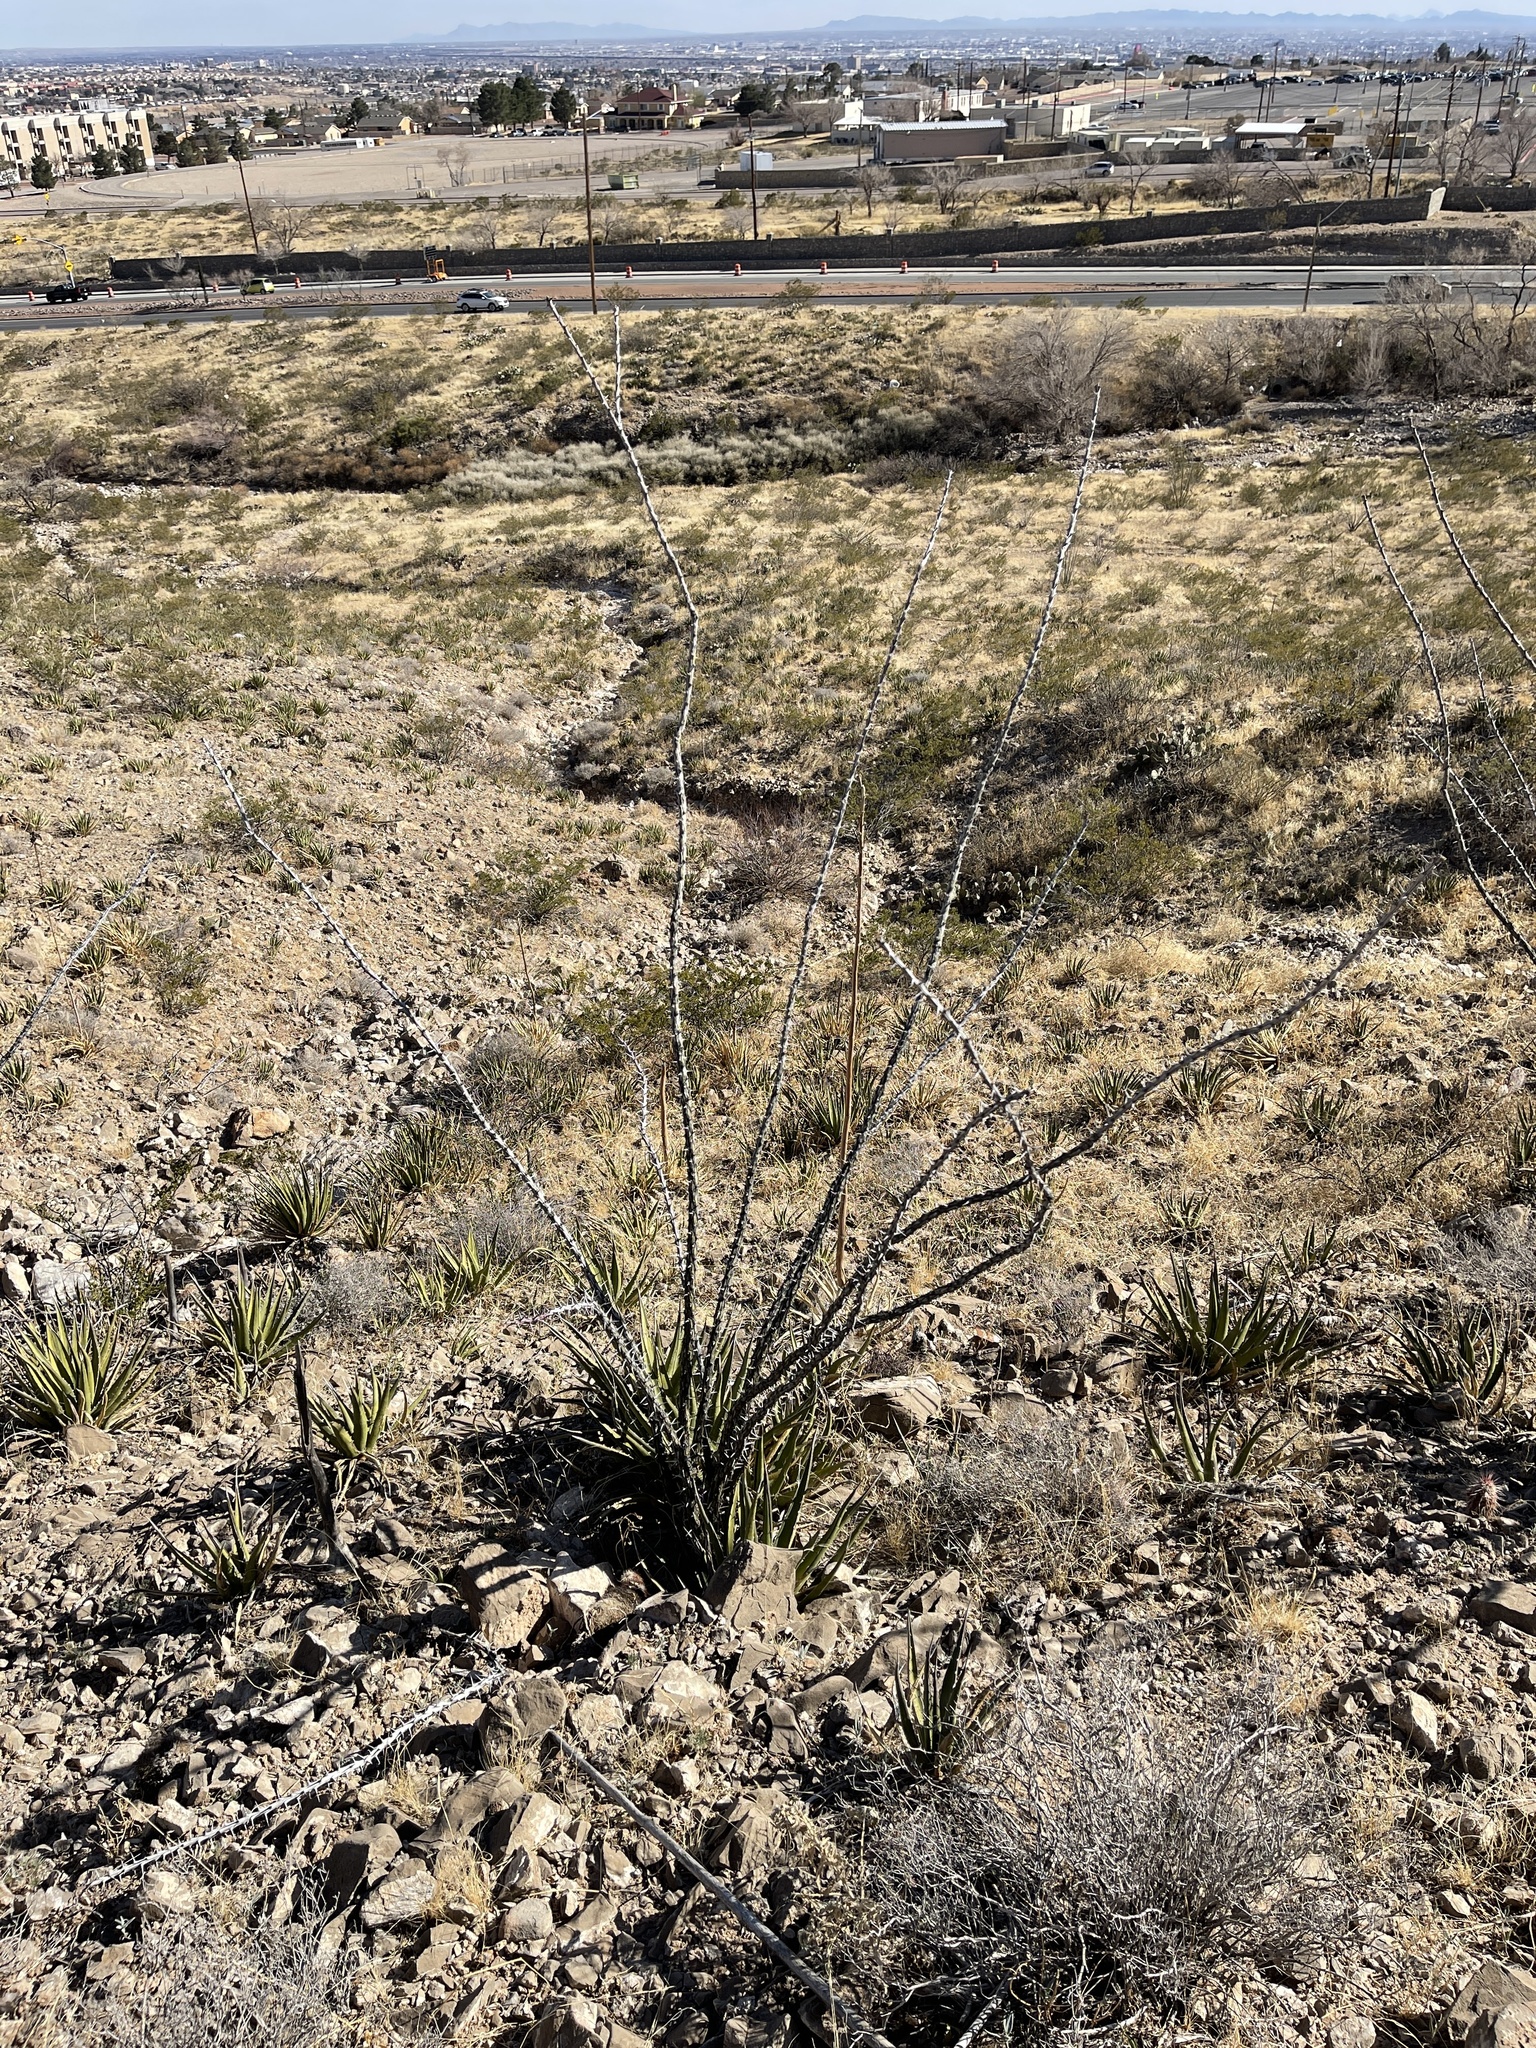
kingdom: Plantae
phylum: Tracheophyta
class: Magnoliopsida
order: Ericales
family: Fouquieriaceae
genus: Fouquieria
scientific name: Fouquieria splendens
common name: Vine-cactus
